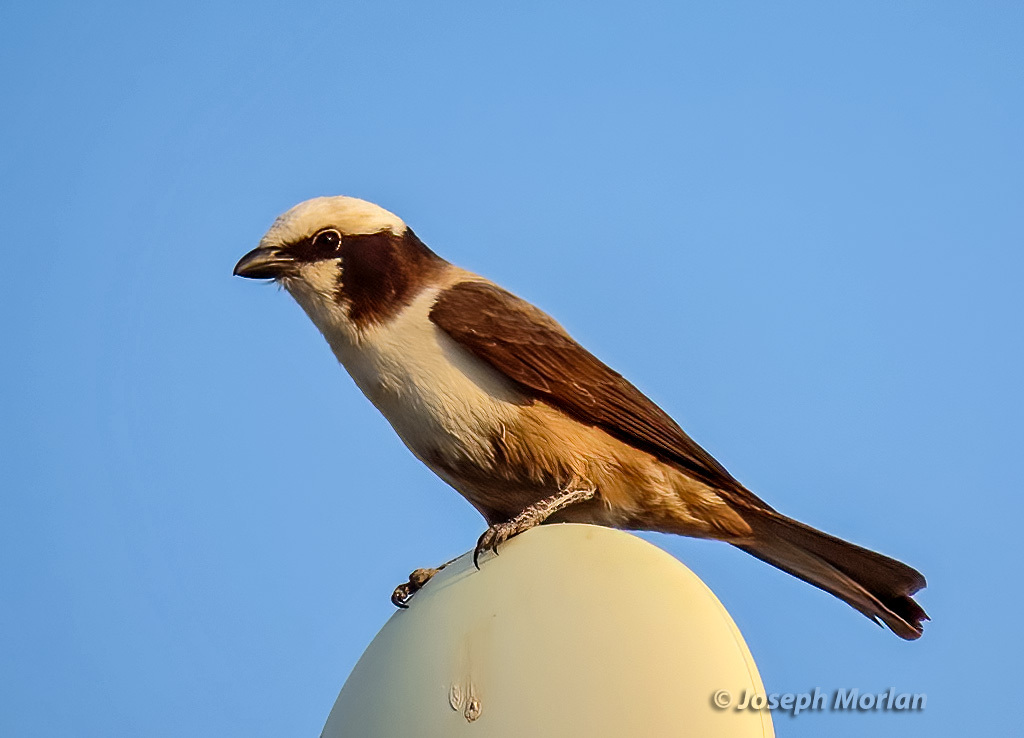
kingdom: Animalia
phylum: Chordata
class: Aves
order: Passeriformes
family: Laniidae
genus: Eurocephalus
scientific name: Eurocephalus anguitimens
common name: Southern white-crowned shrike
